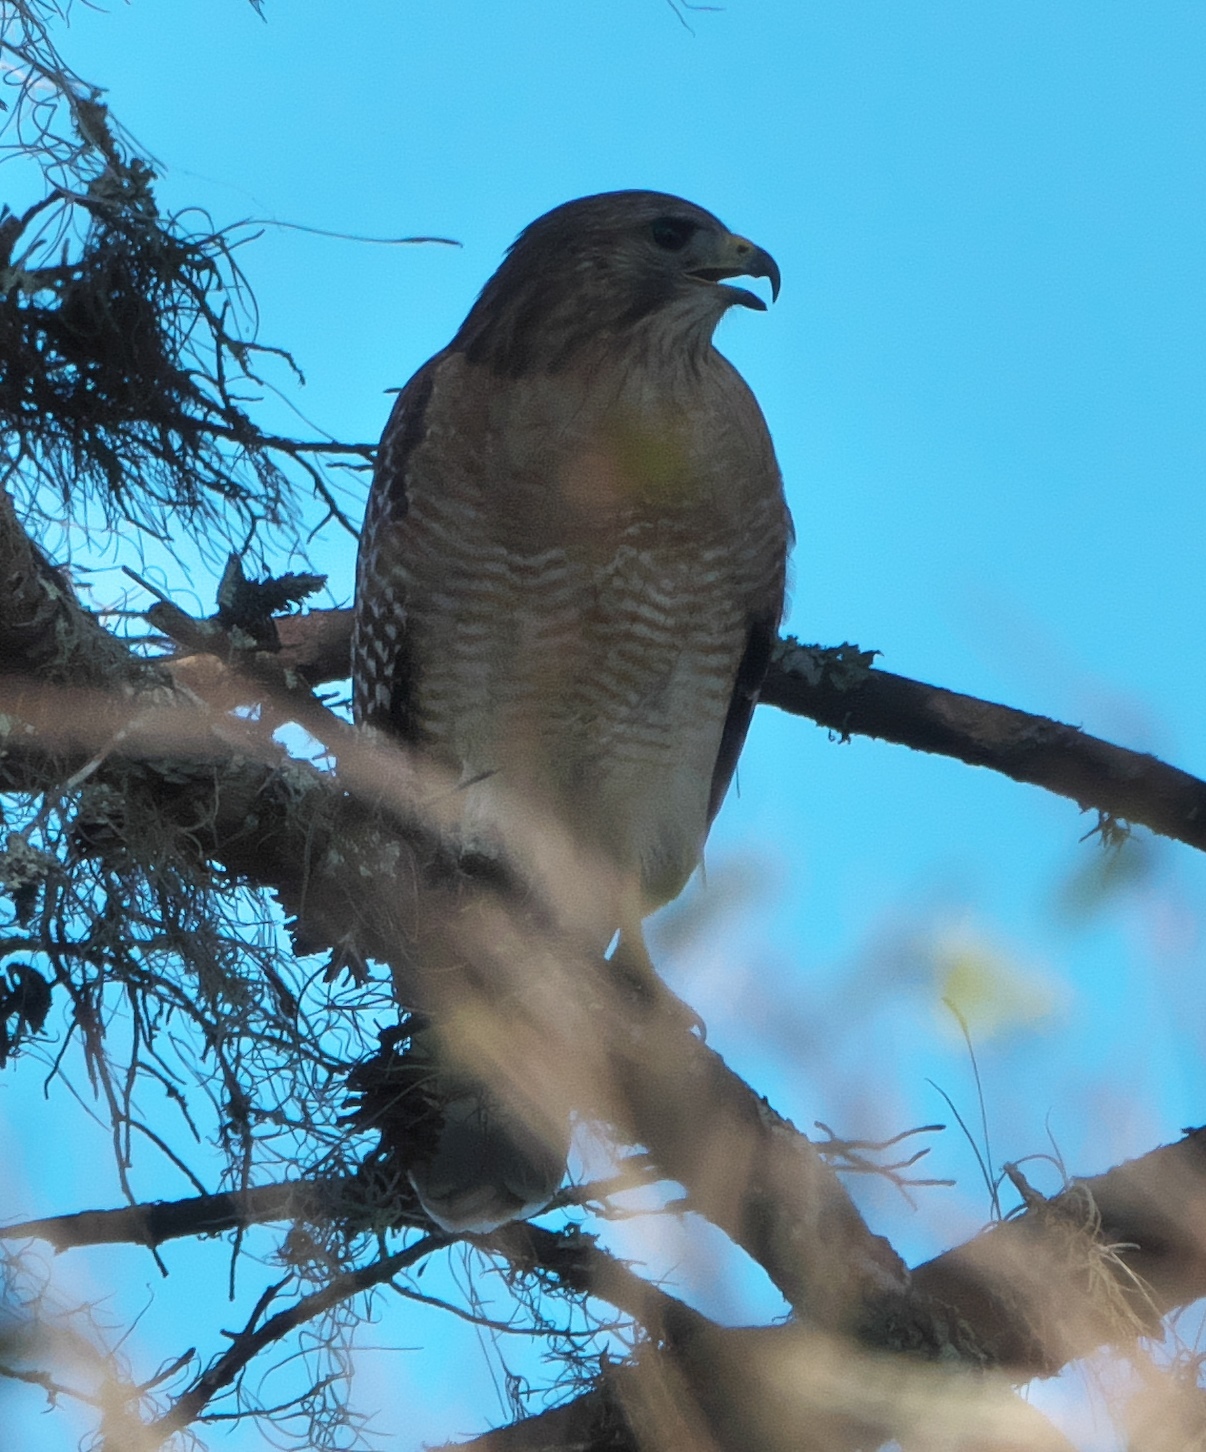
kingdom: Animalia
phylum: Chordata
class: Aves
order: Accipitriformes
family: Accipitridae
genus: Buteo
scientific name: Buteo lineatus
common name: Red-shouldered hawk
